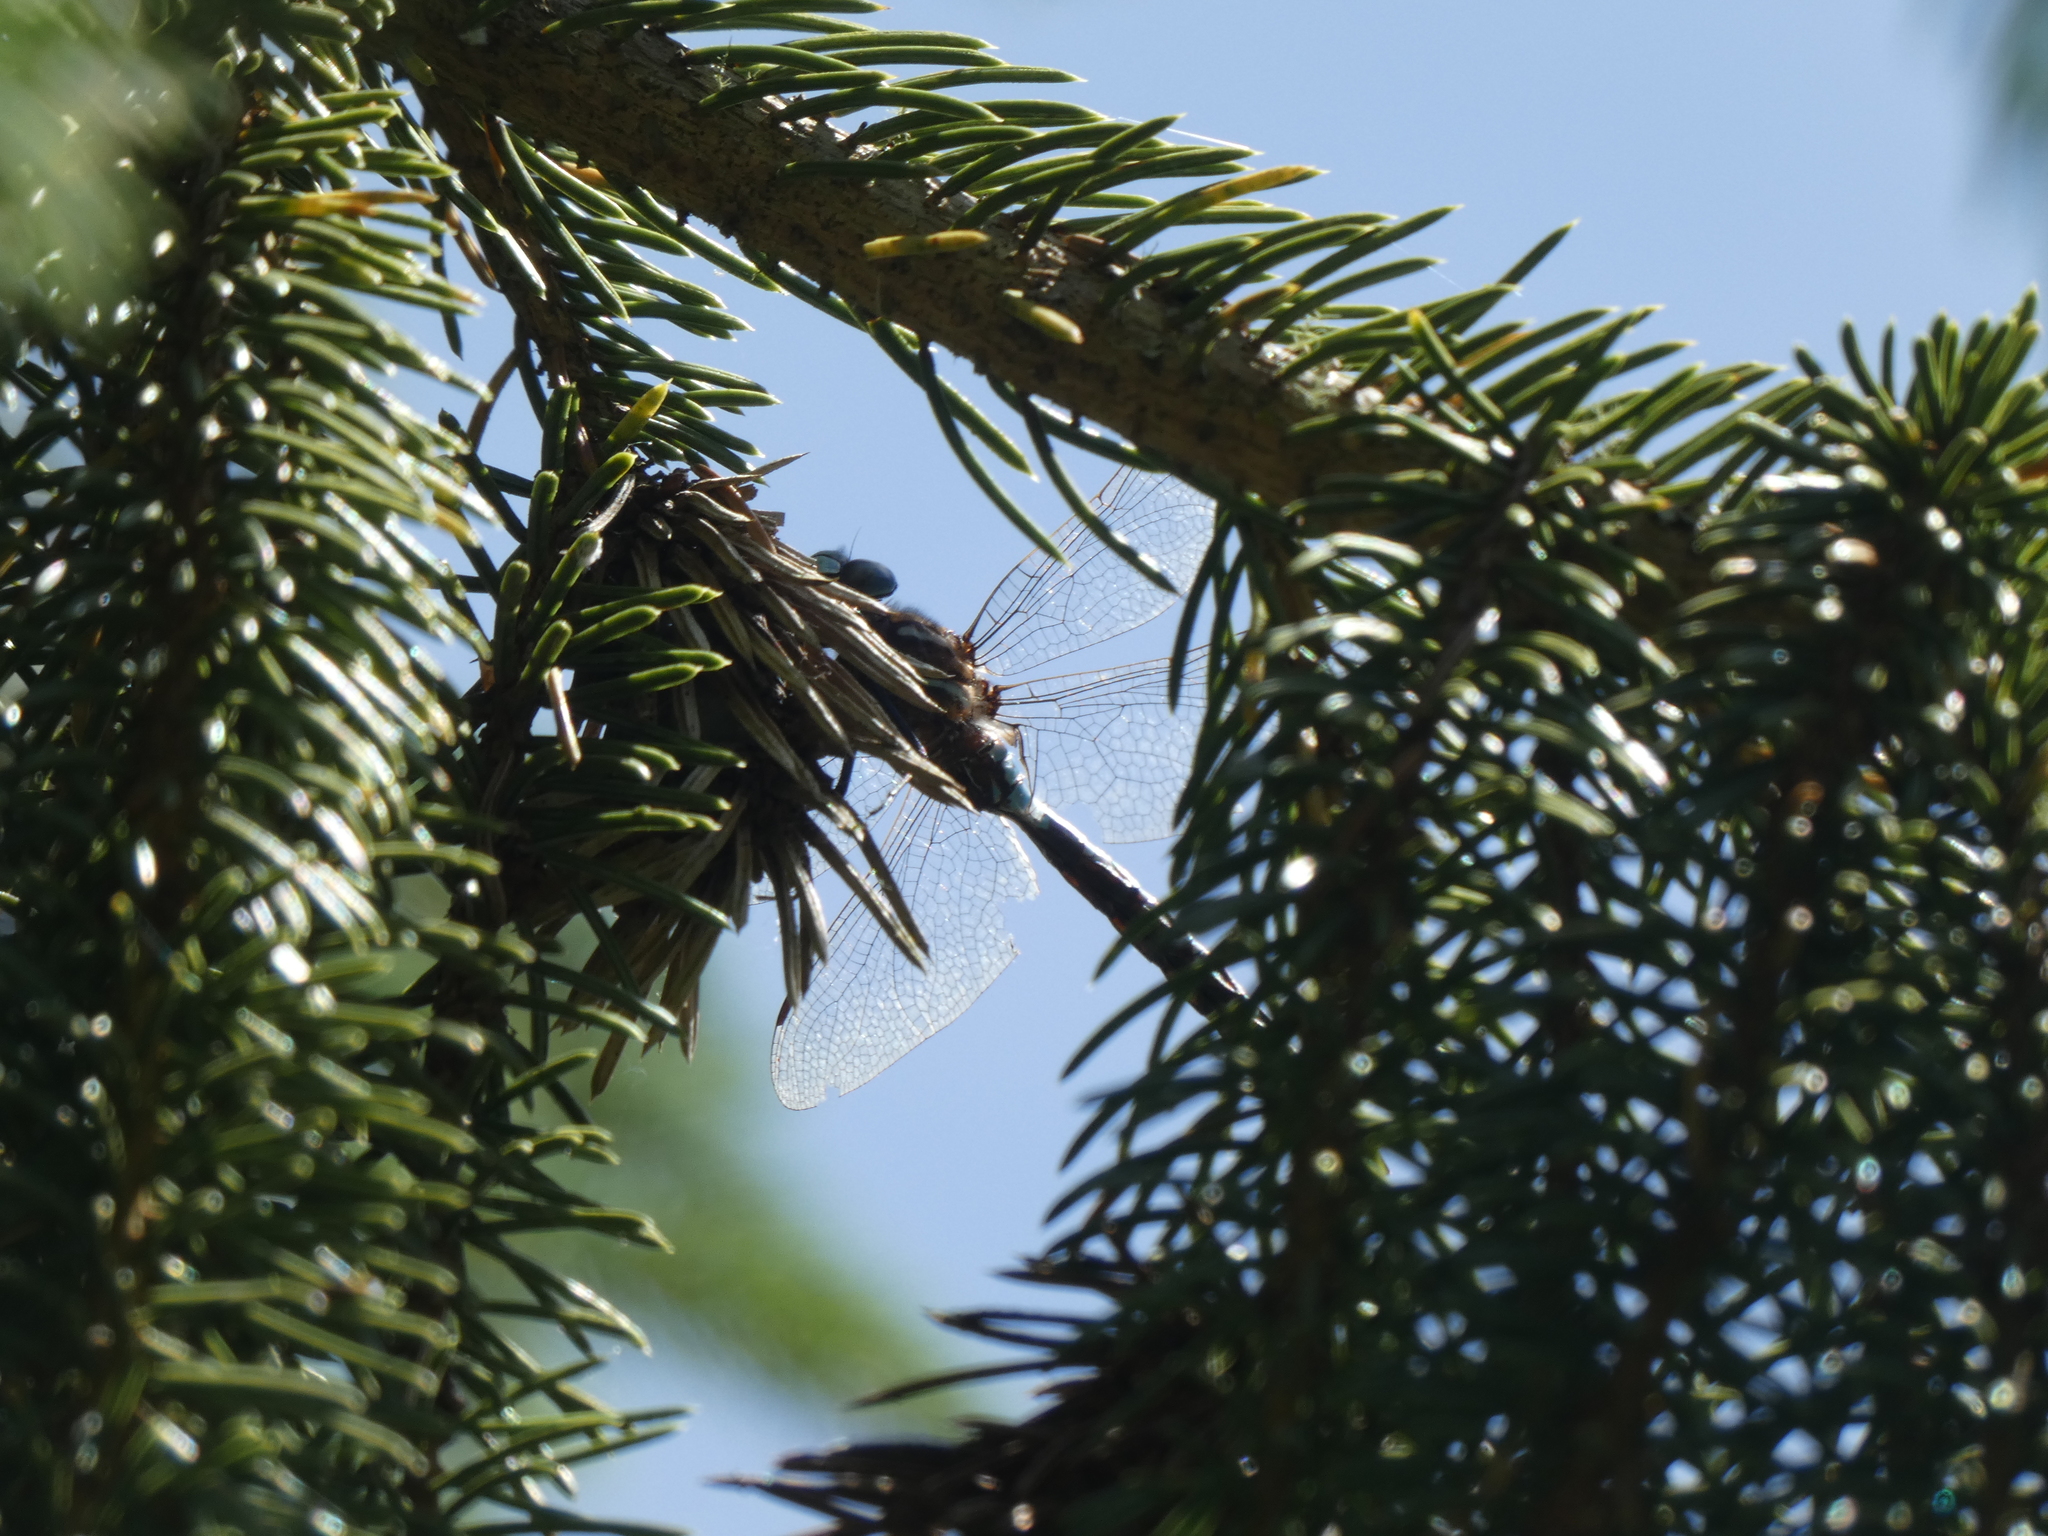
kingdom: Animalia
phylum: Arthropoda
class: Insecta
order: Odonata
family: Aeshnidae
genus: Rhionaeschna
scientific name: Rhionaeschna californica
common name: California darner
